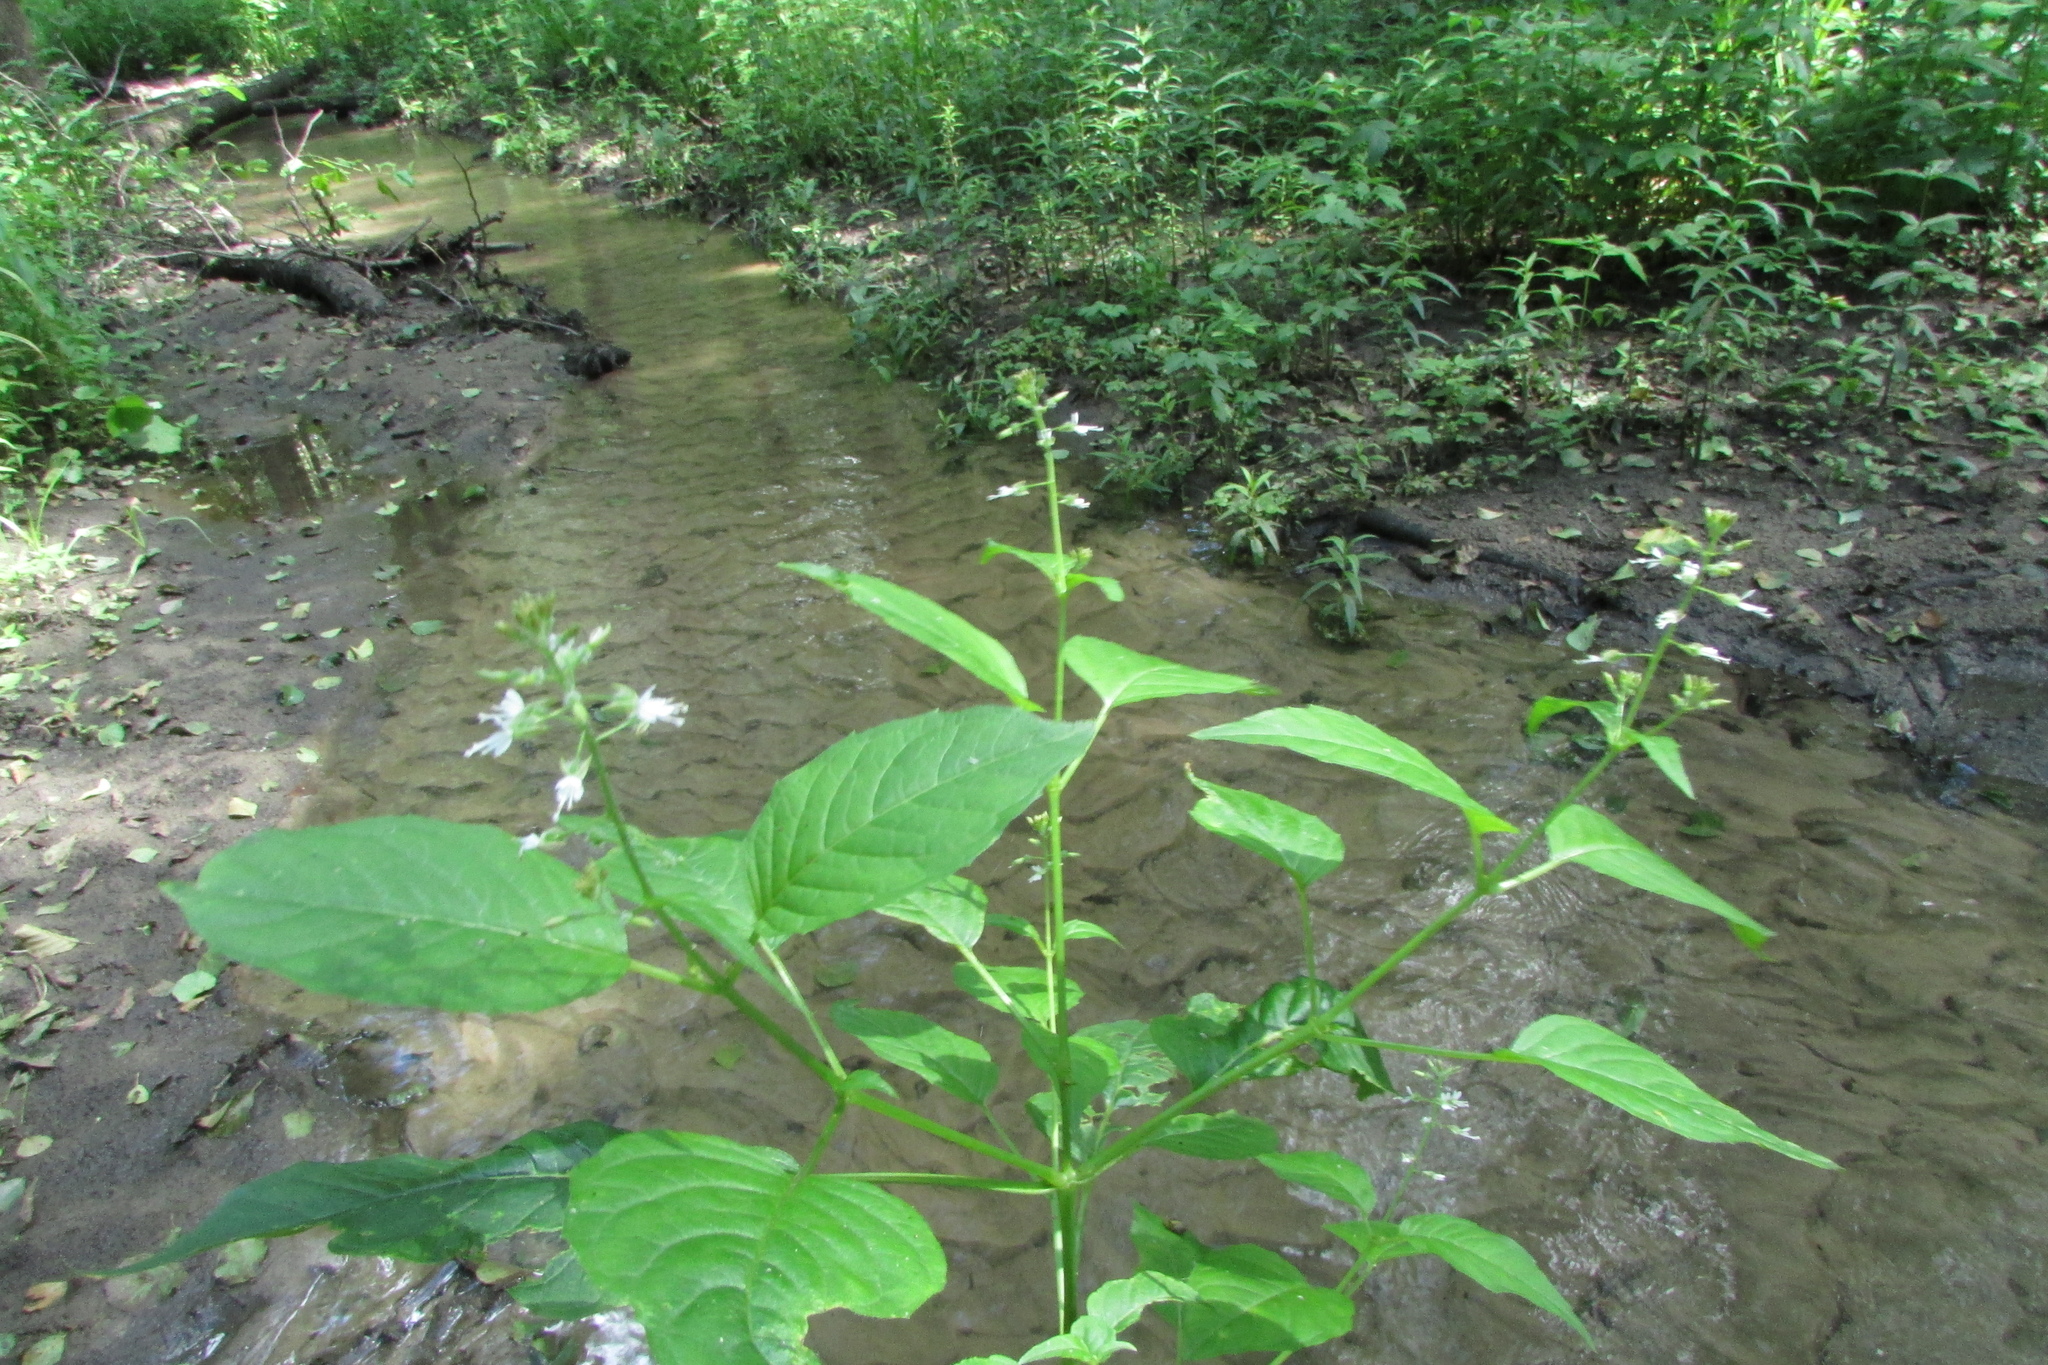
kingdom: Plantae
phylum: Tracheophyta
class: Magnoliopsida
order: Myrtales
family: Onagraceae
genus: Circaea
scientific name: Circaea lutetiana
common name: Enchanter's-nightshade
